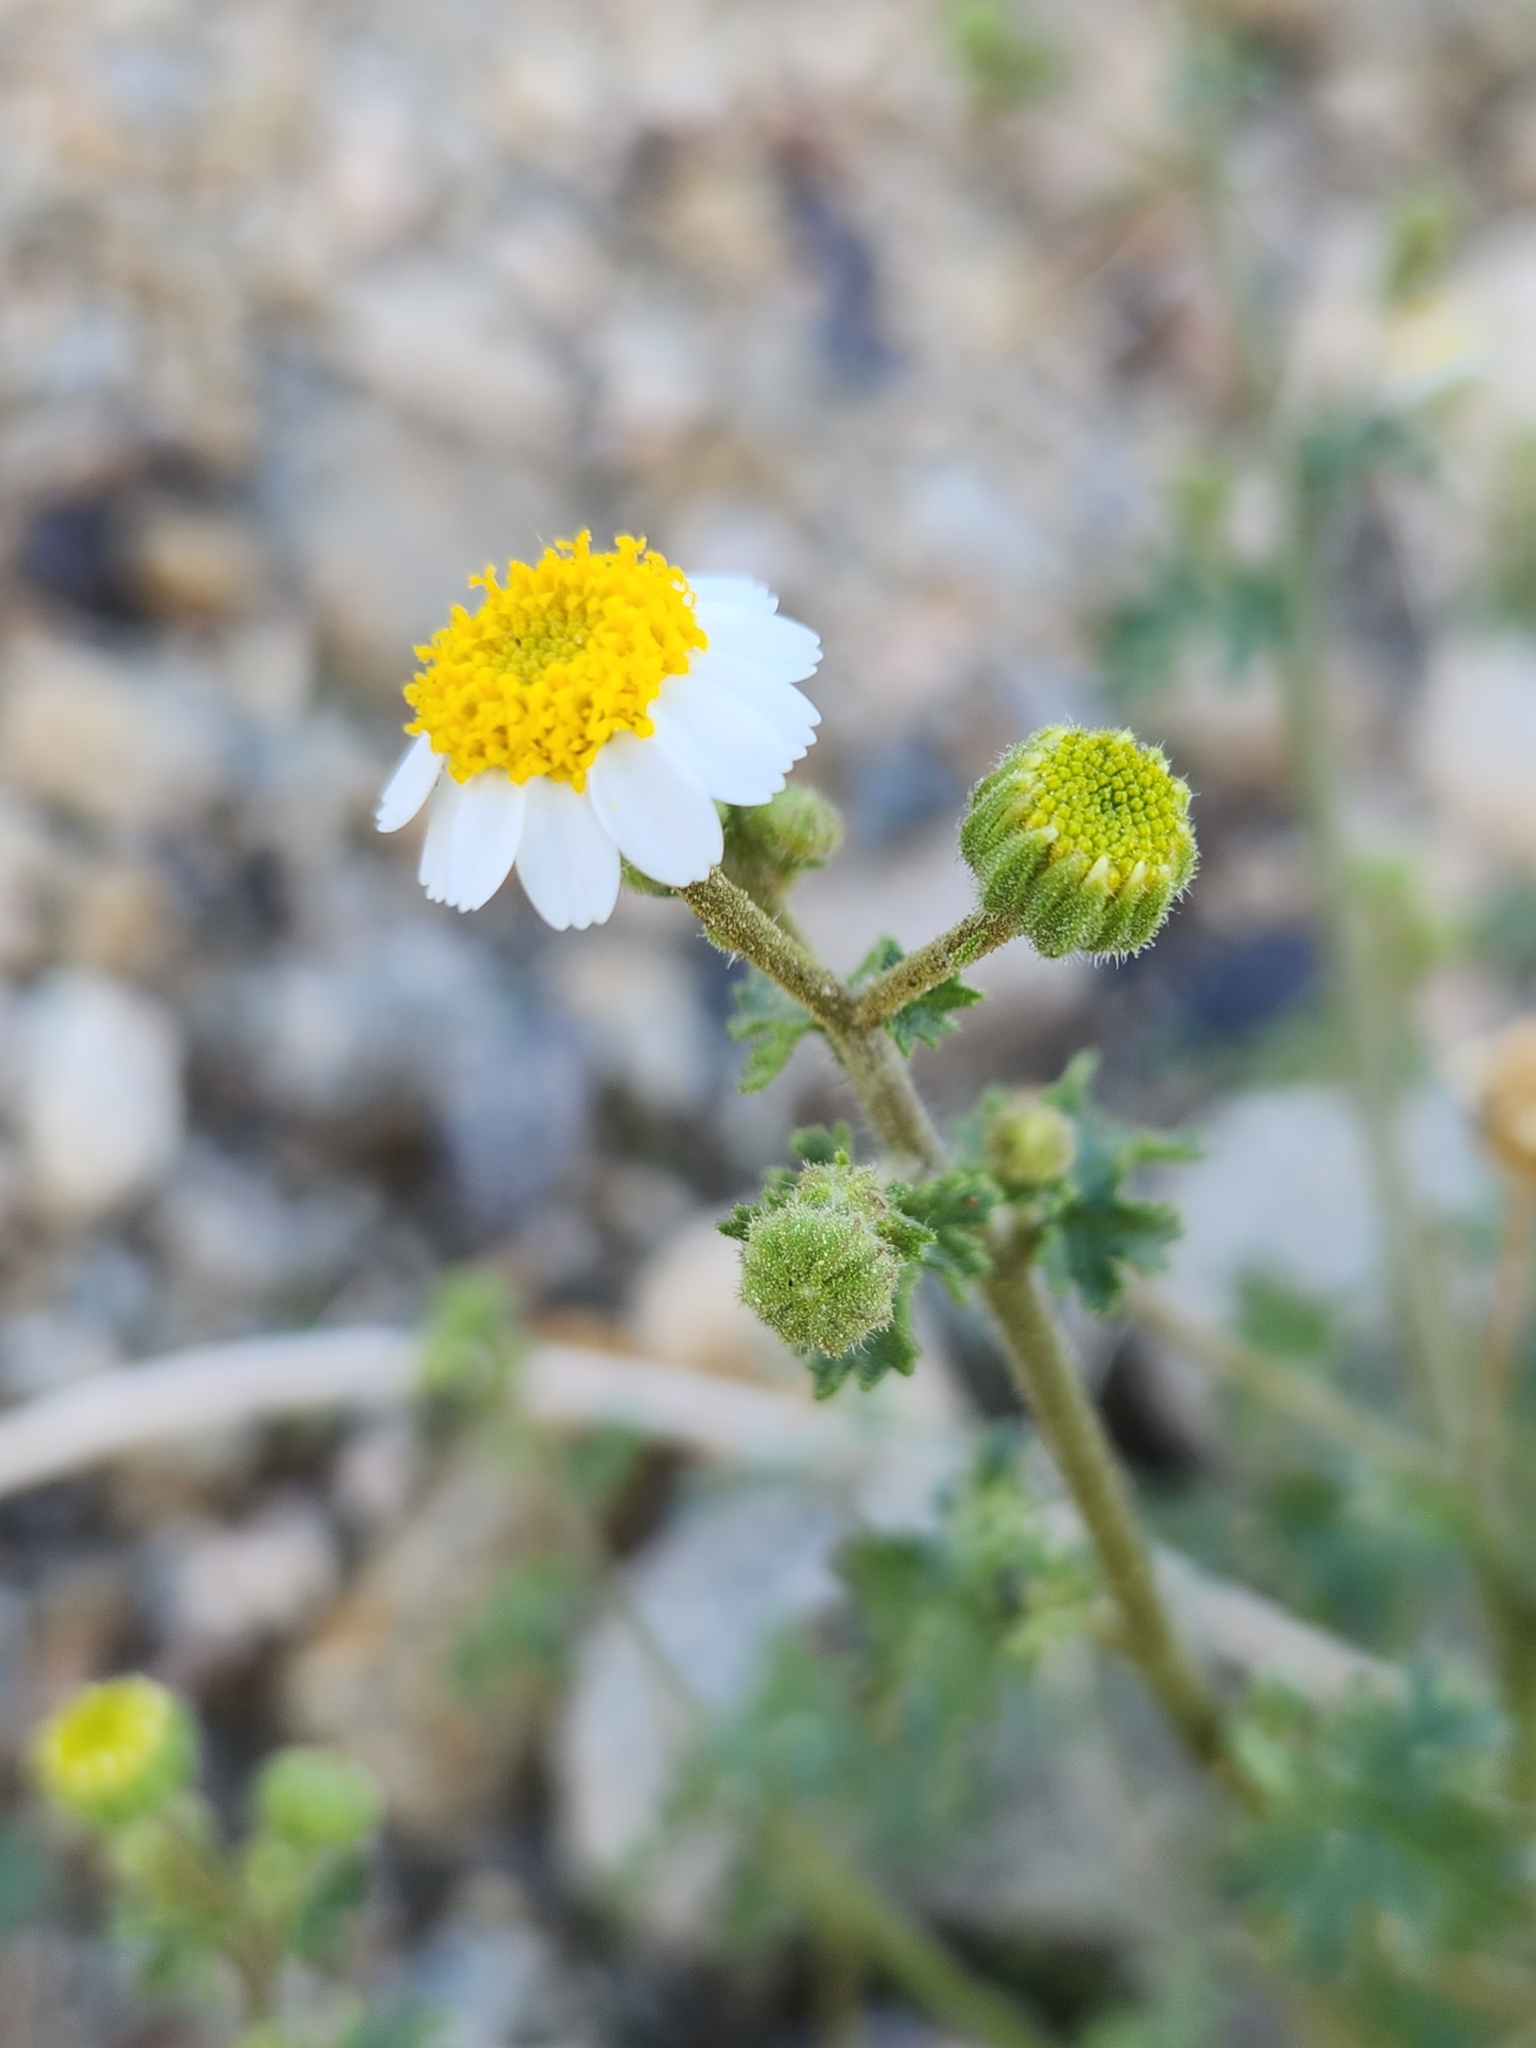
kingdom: Plantae
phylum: Tracheophyta
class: Magnoliopsida
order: Asterales
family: Asteraceae
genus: Laphamia
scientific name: Laphamia emoryi
